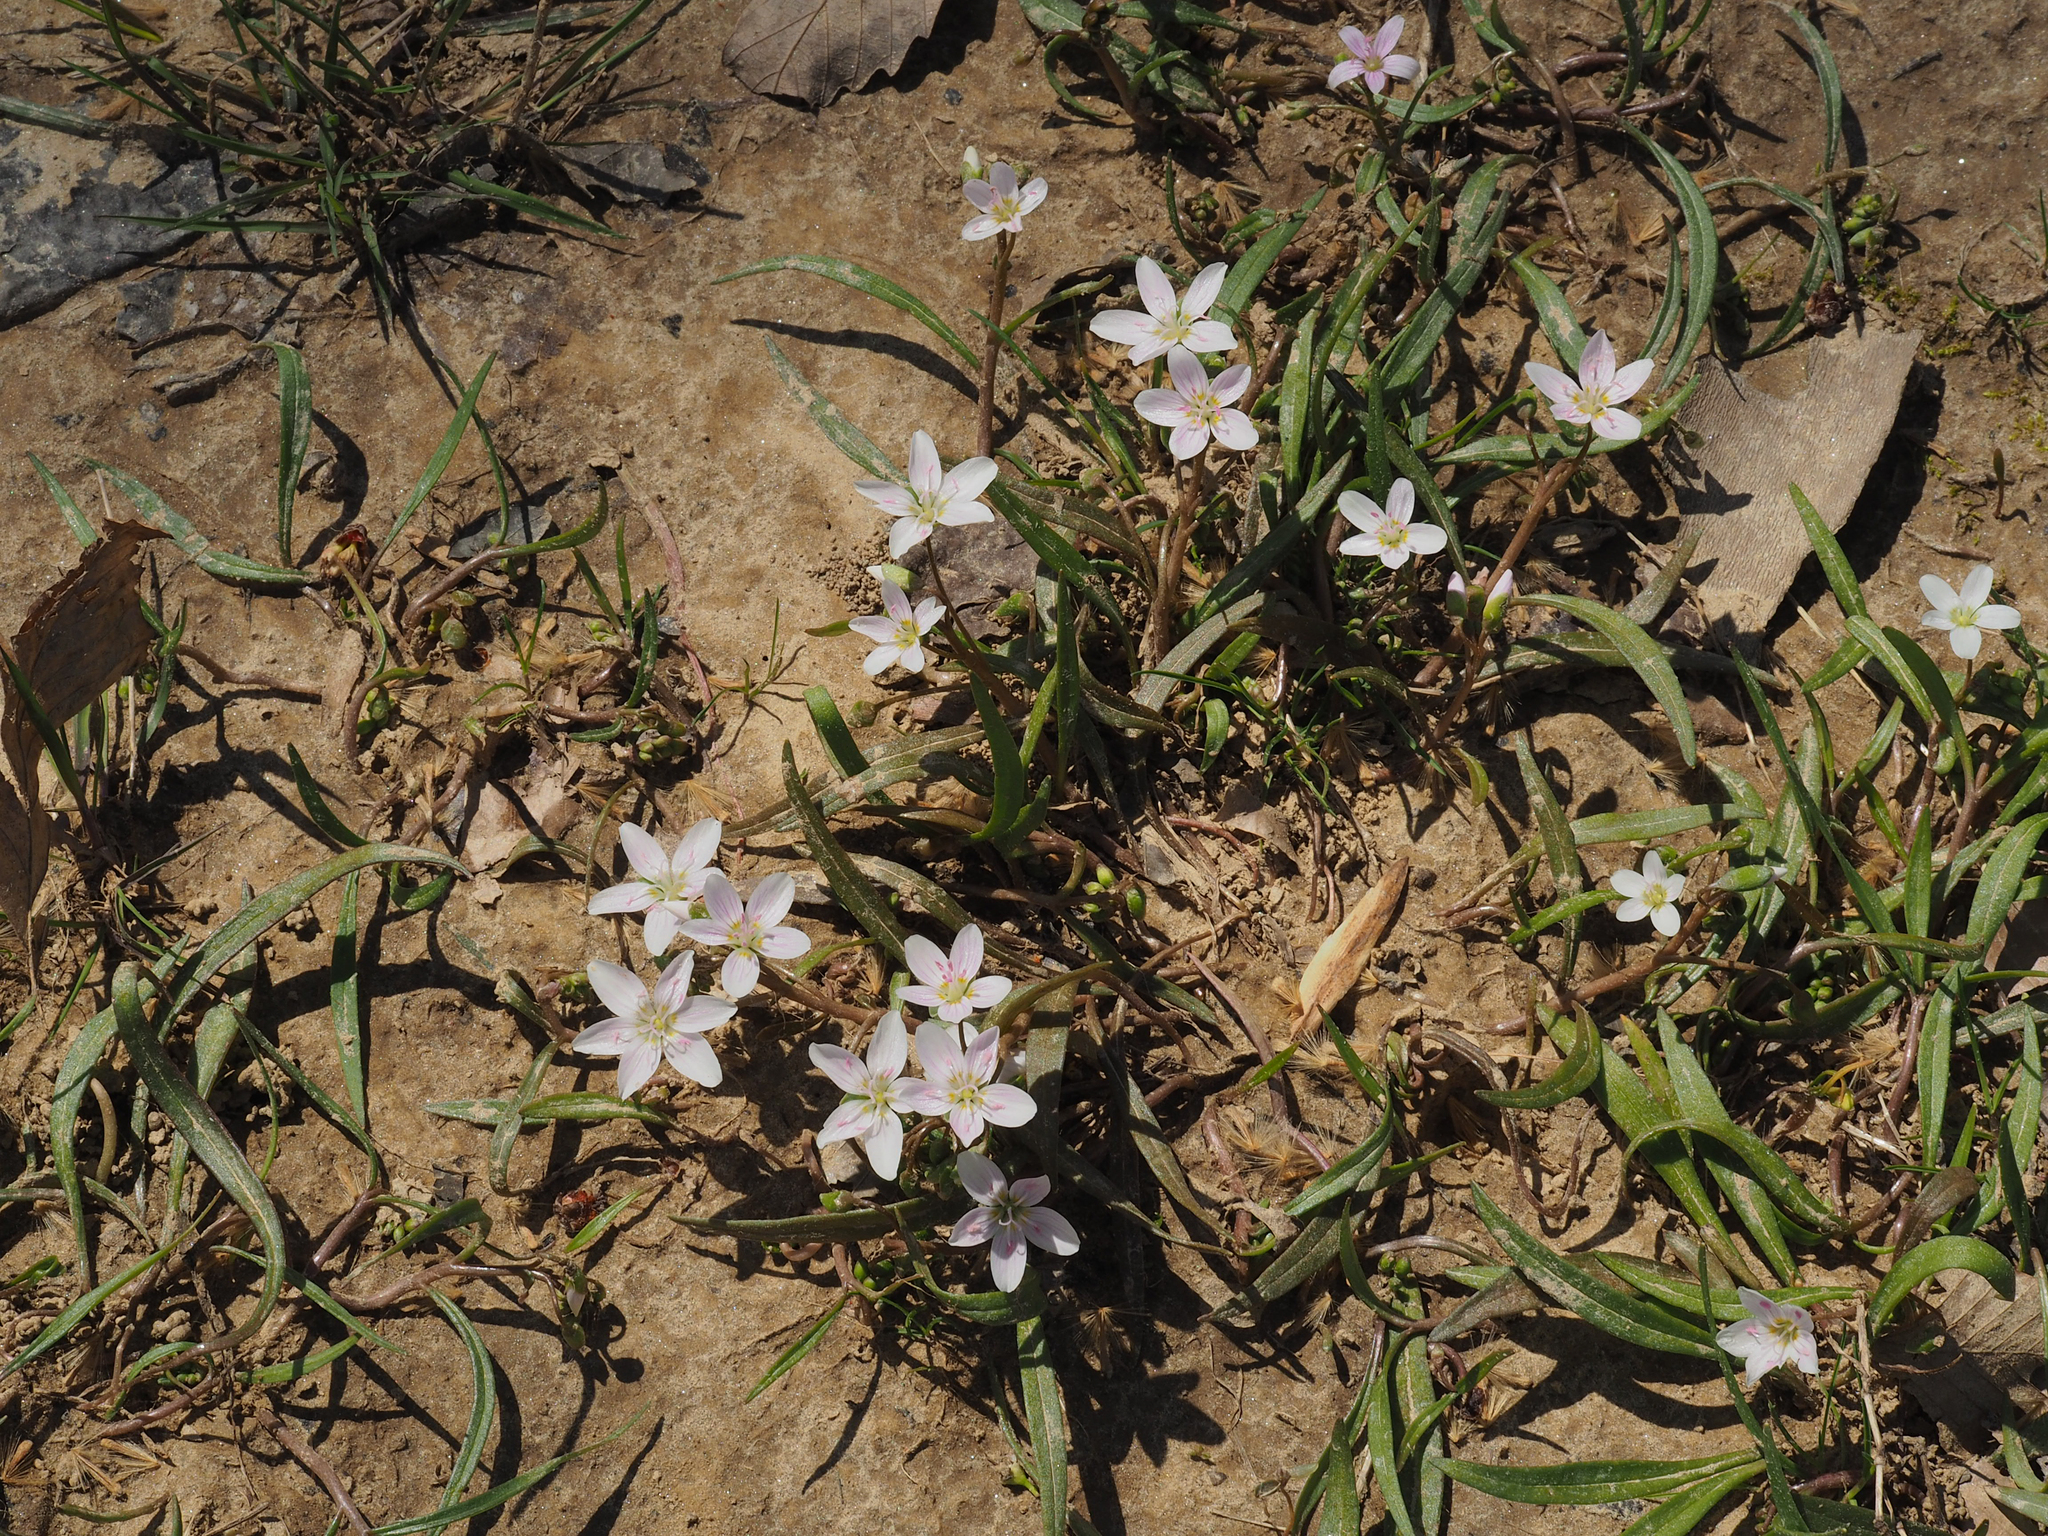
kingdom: Plantae
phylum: Tracheophyta
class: Magnoliopsida
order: Caryophyllales
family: Montiaceae
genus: Claytonia
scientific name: Claytonia virginica
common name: Virginia springbeauty
